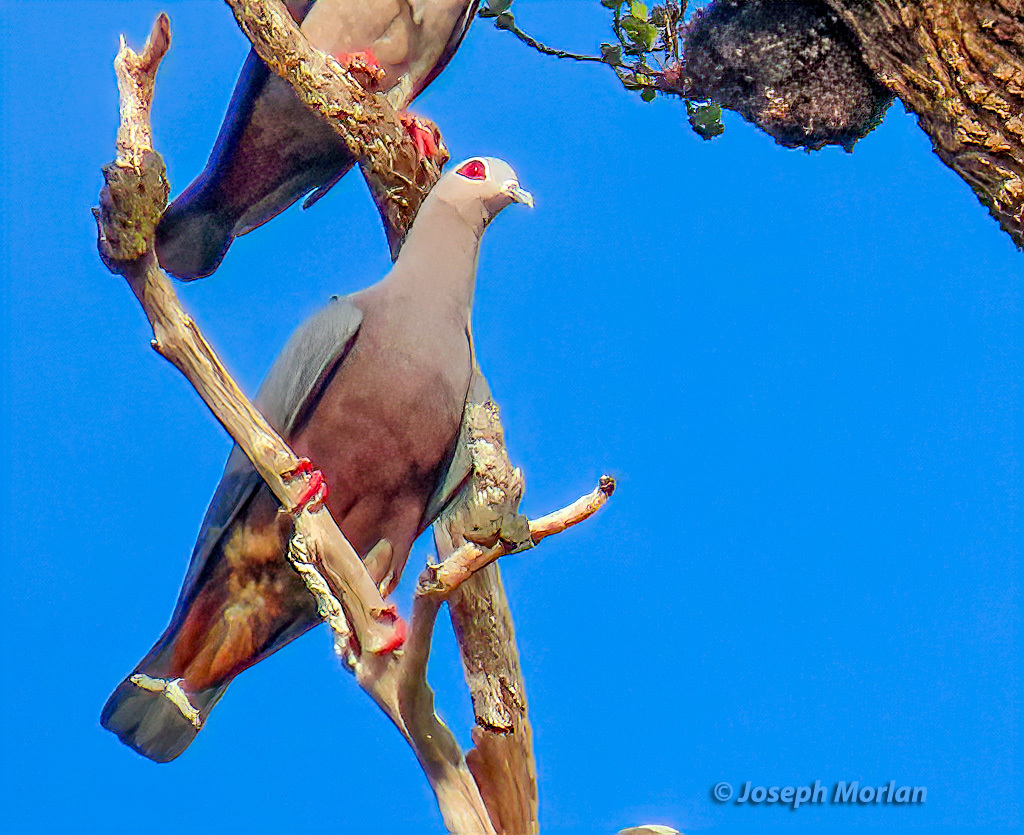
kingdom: Animalia
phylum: Chordata
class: Aves
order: Columbiformes
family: Columbidae
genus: Ducula
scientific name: Ducula pinon
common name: Pinon's imperial pigeon
